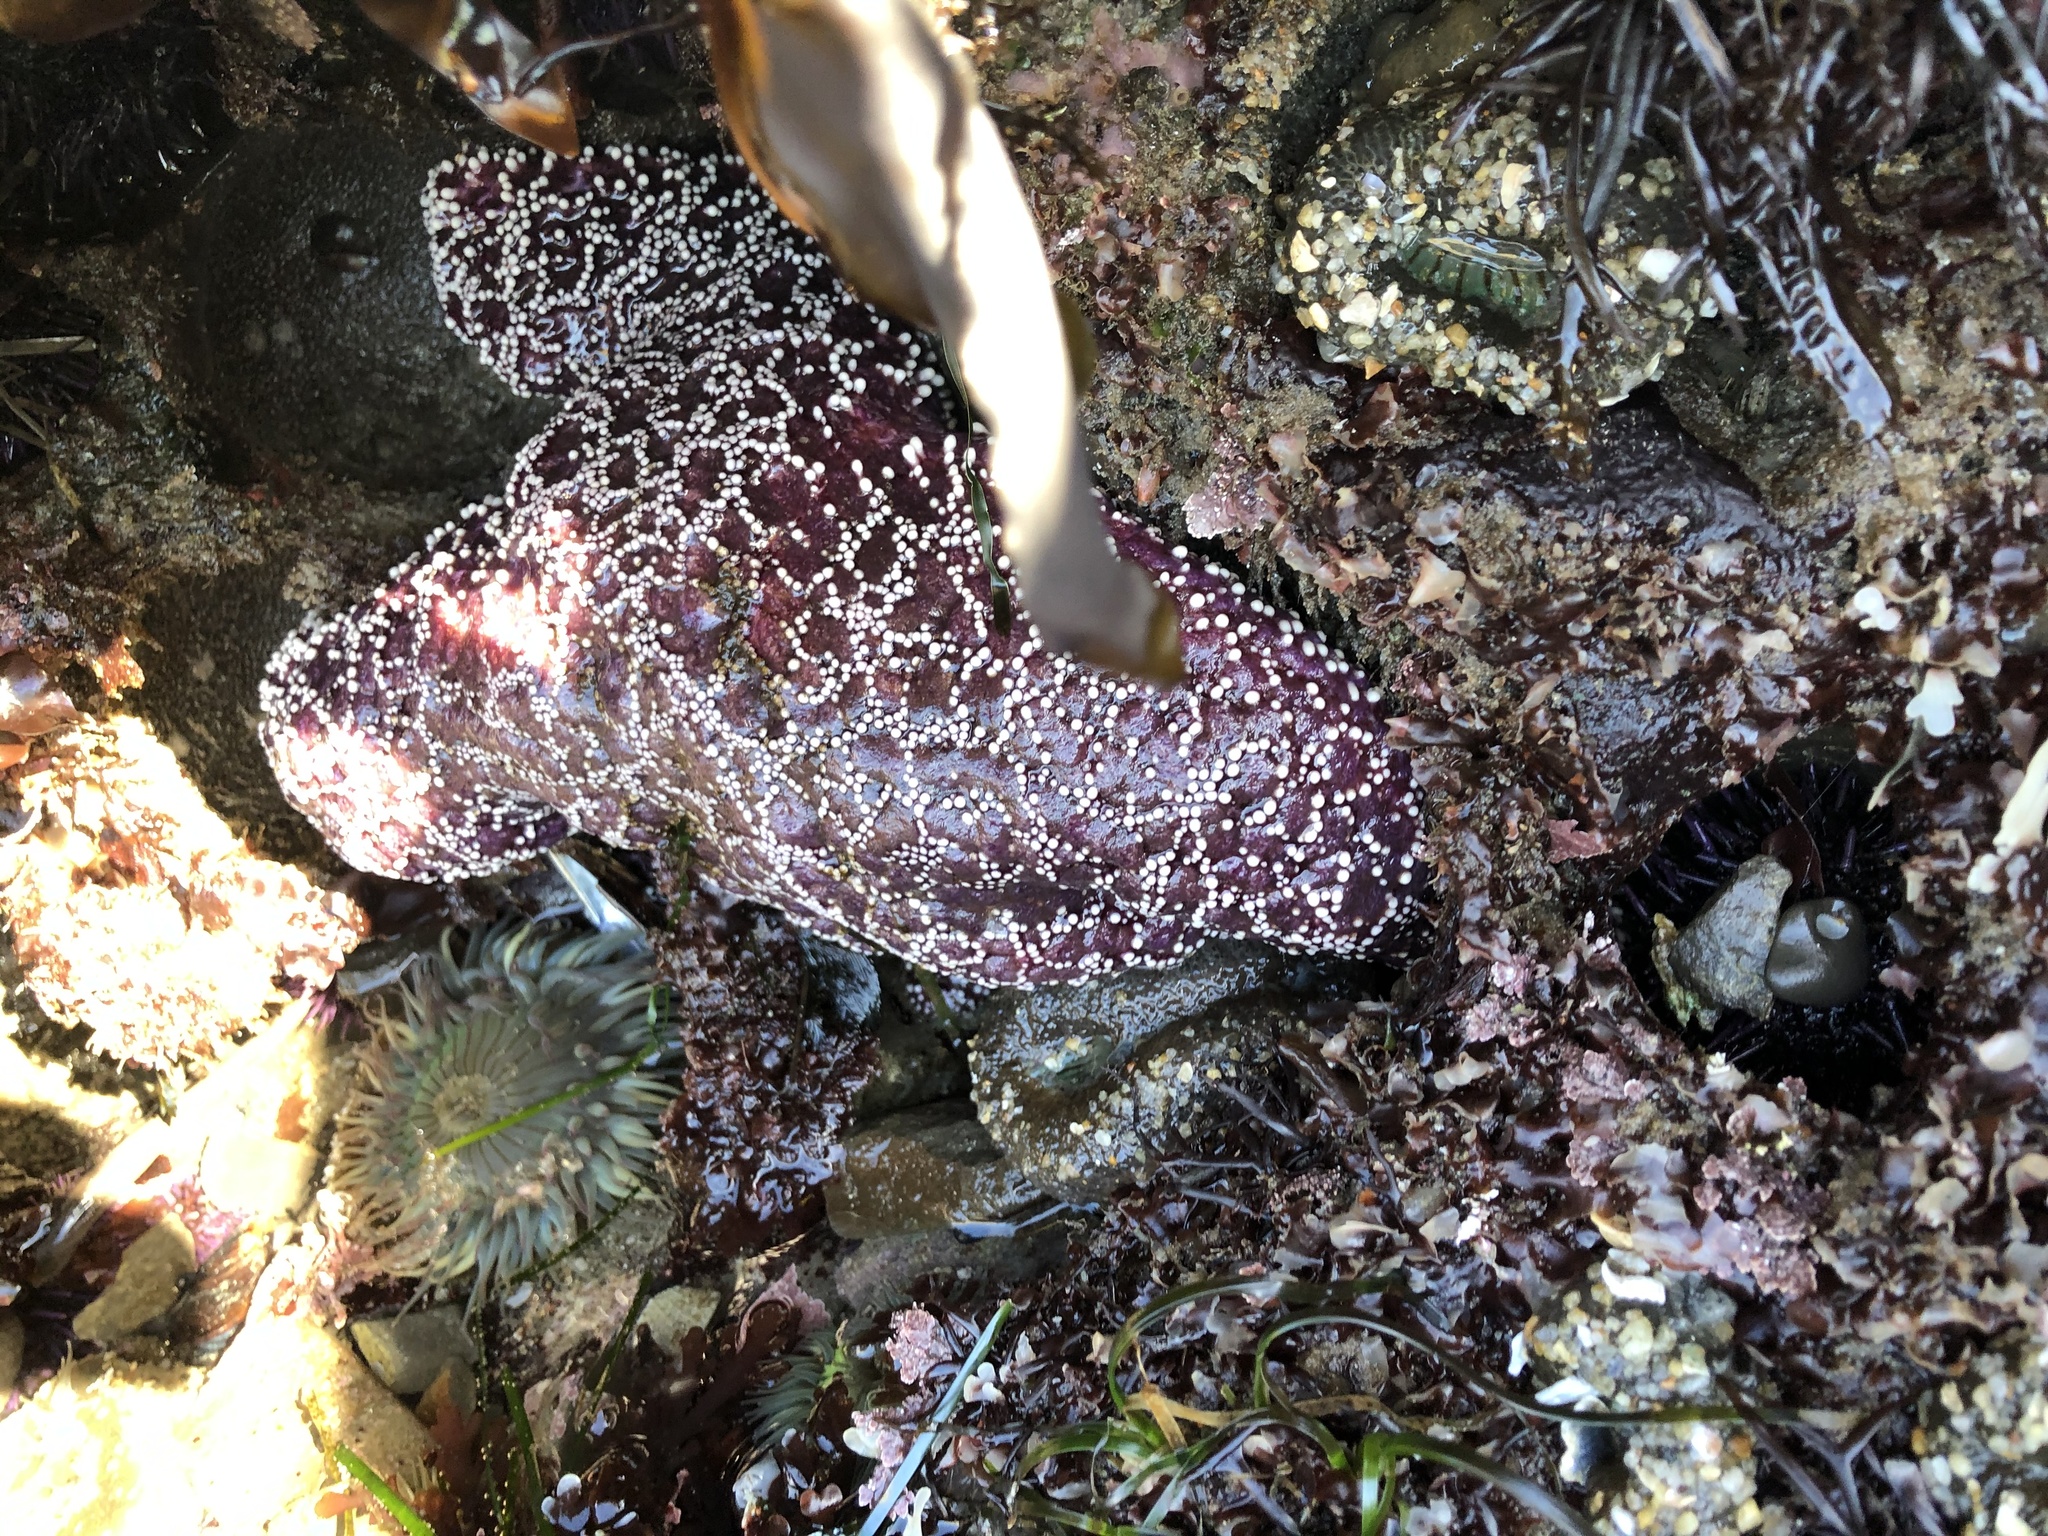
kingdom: Animalia
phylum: Echinodermata
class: Asteroidea
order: Forcipulatida
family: Asteriidae
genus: Pisaster
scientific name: Pisaster ochraceus
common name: Ochre stars
